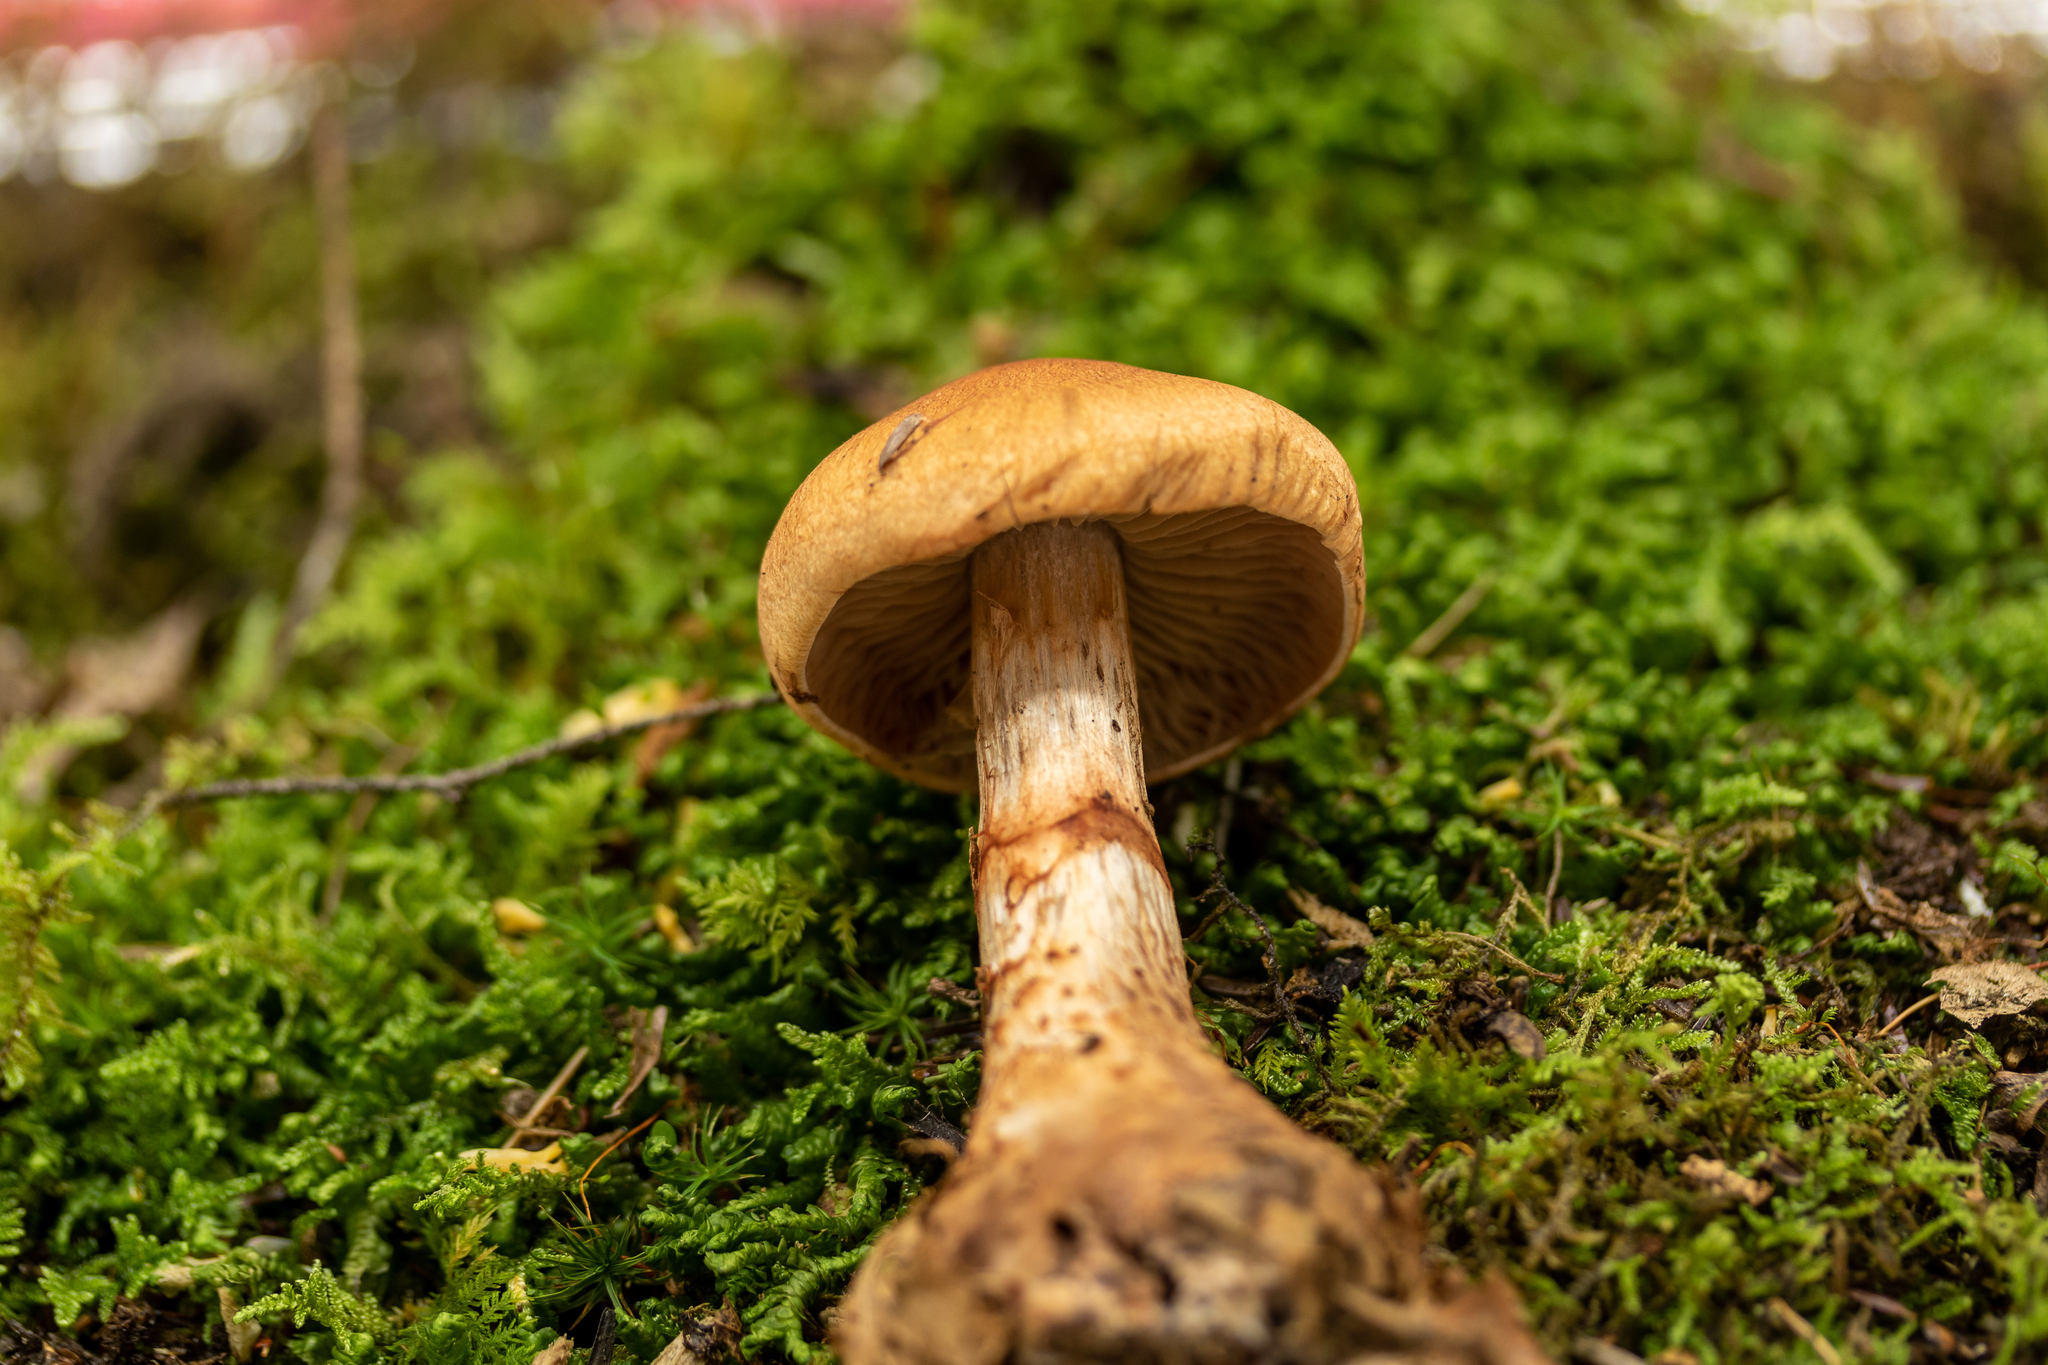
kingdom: Fungi
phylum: Basidiomycota
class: Agaricomycetes
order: Agaricales
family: Cortinariaceae
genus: Cortinarius
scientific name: Cortinarius armillatus
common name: Red banded webcap
